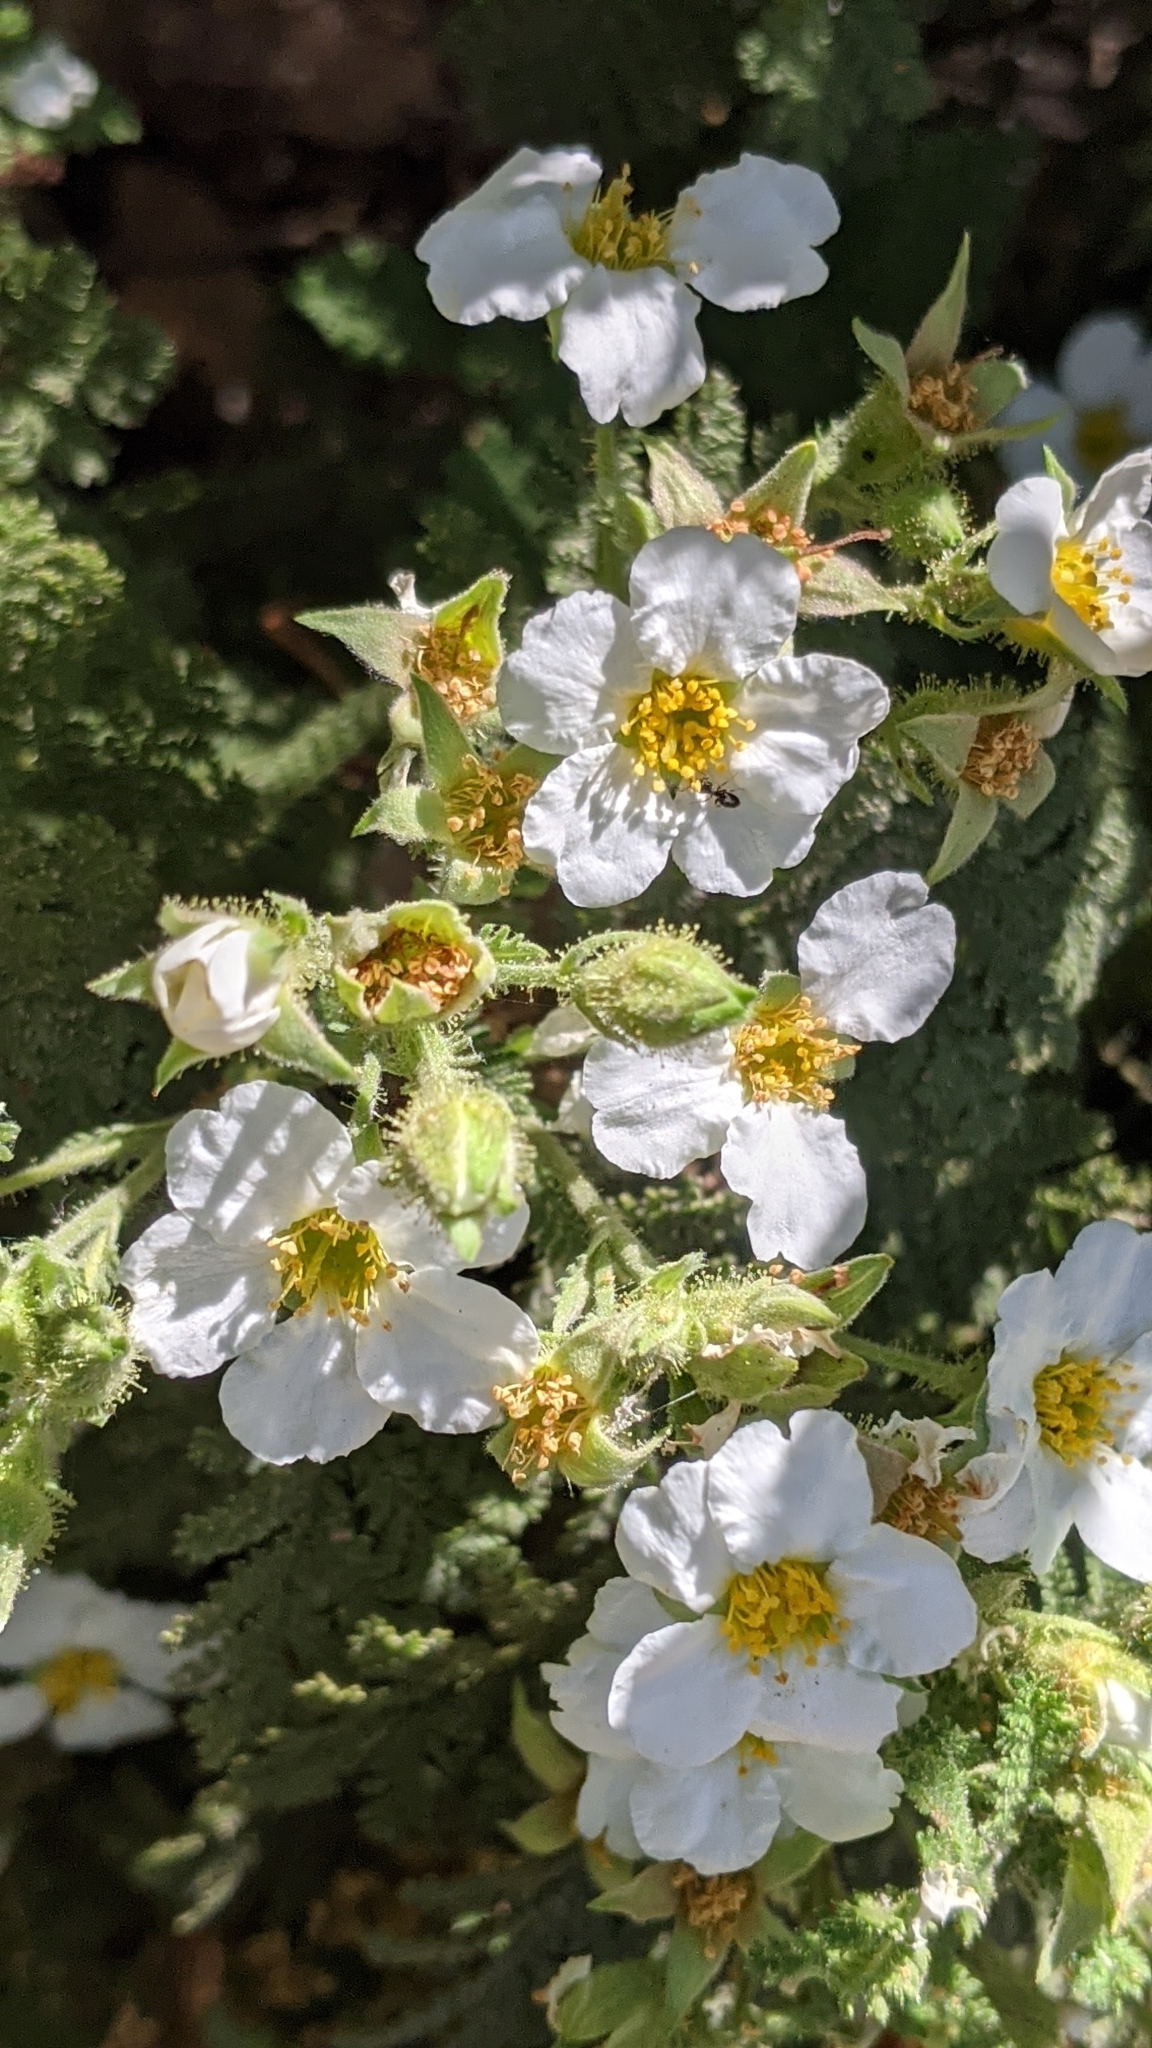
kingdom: Plantae
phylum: Tracheophyta
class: Magnoliopsida
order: Rosales
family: Rosaceae
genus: Chamaebatia
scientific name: Chamaebatia foliolosa
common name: Mountain misery
